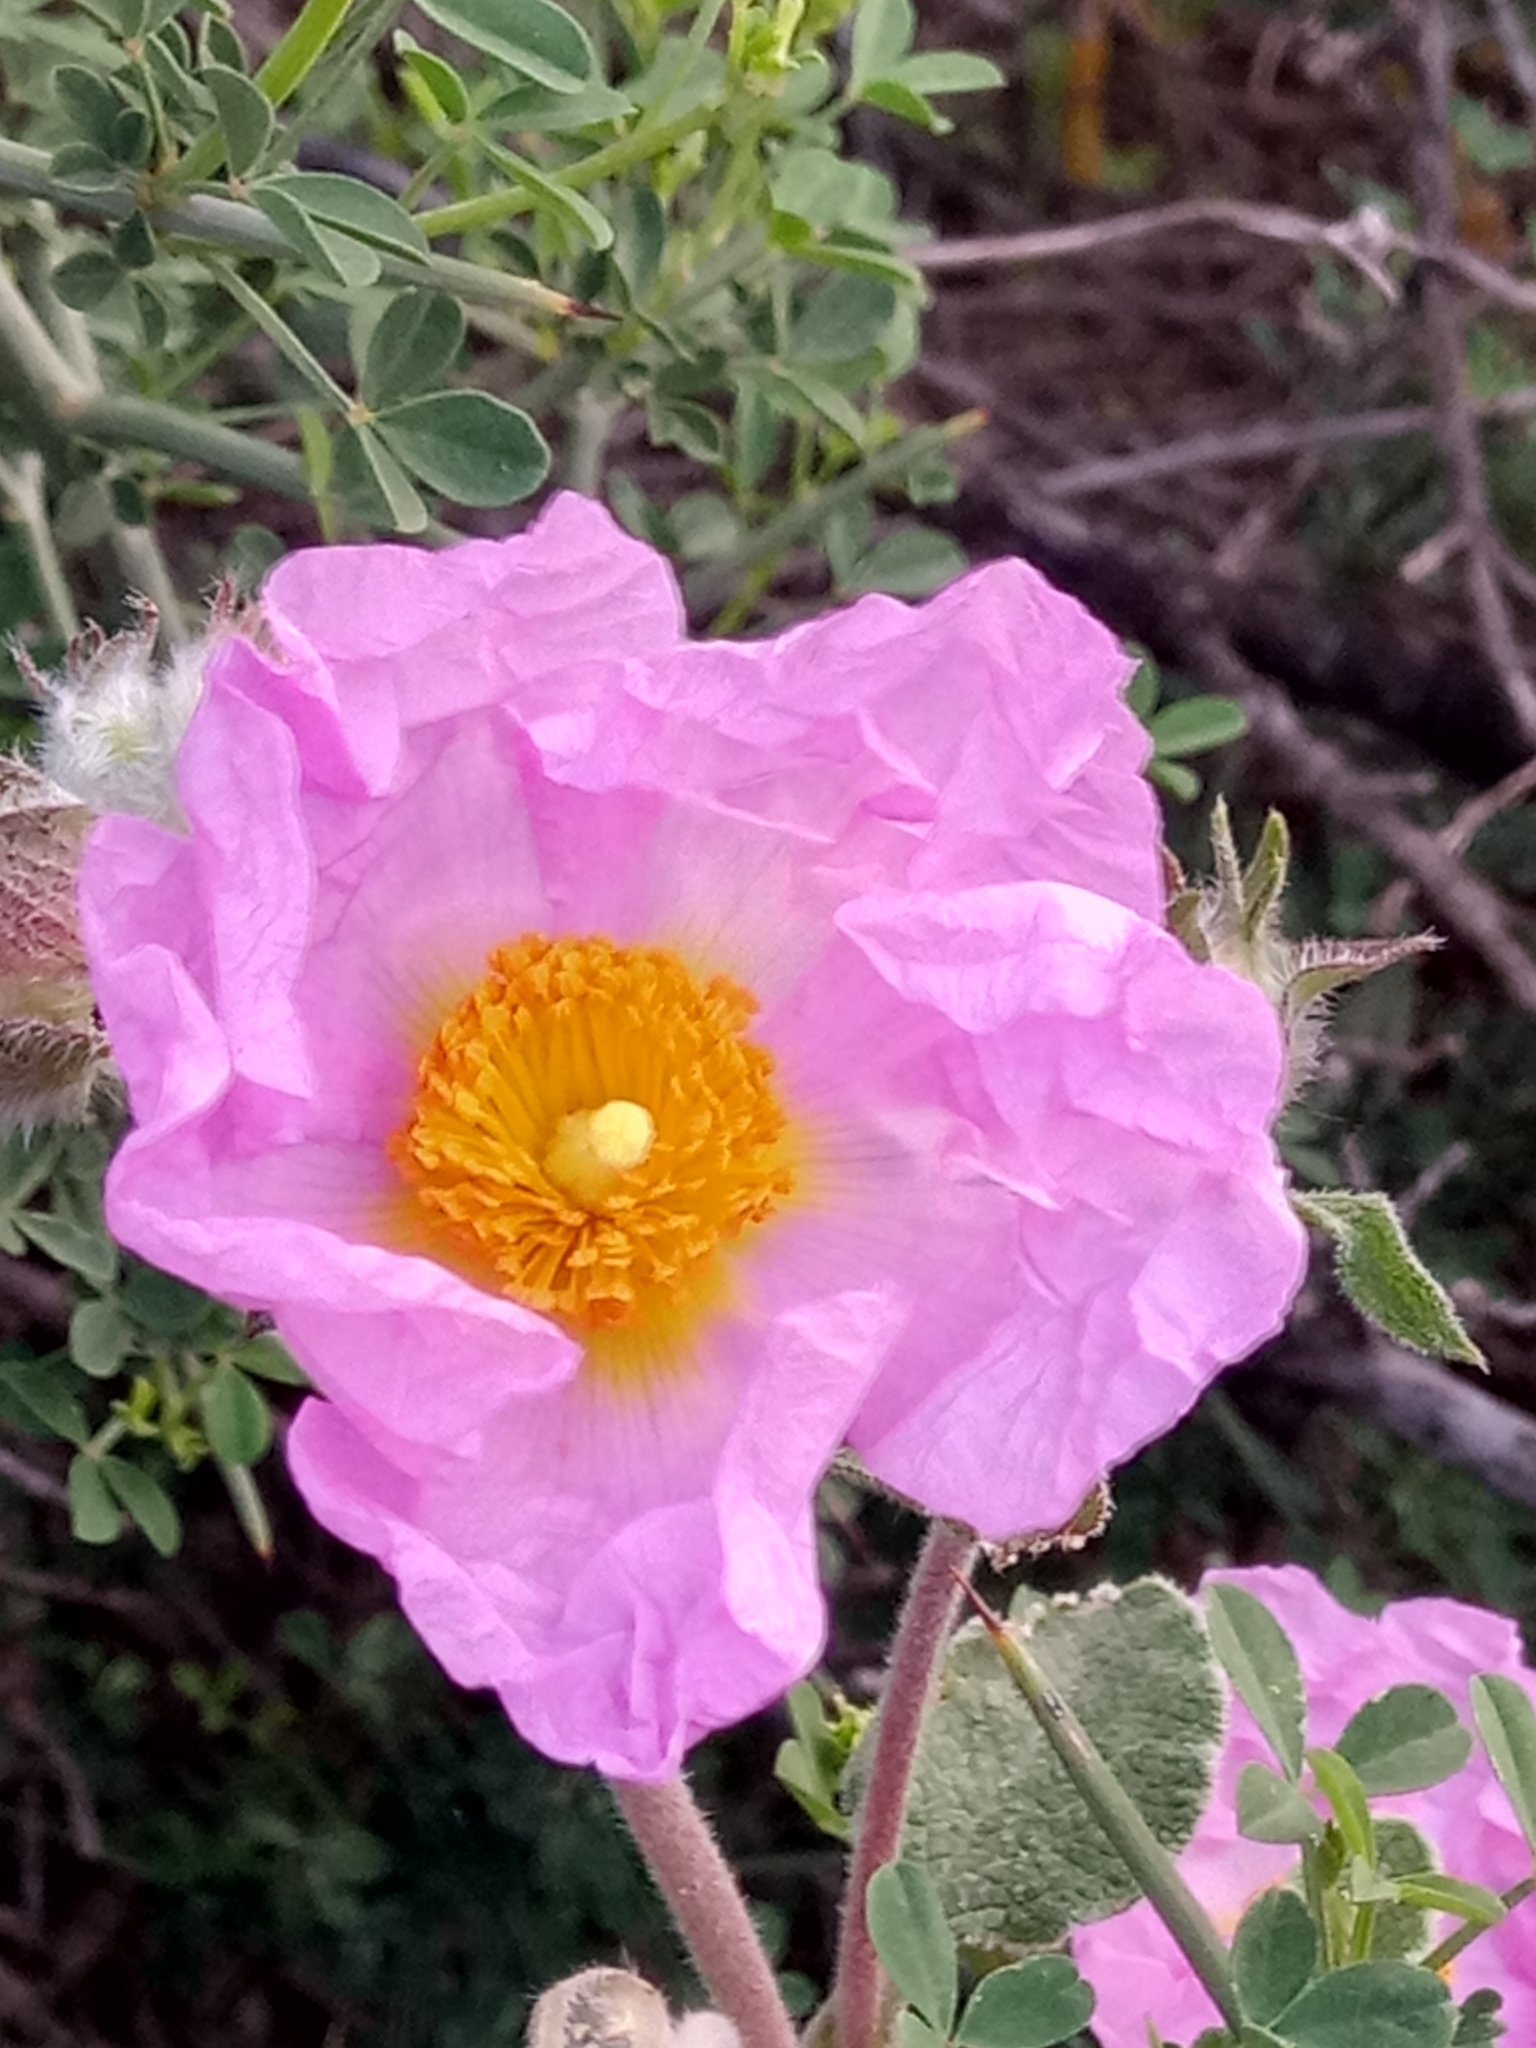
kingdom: Plantae
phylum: Tracheophyta
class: Magnoliopsida
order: Malvales
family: Cistaceae
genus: Cistus
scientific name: Cistus creticus
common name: Cretan rockrose
